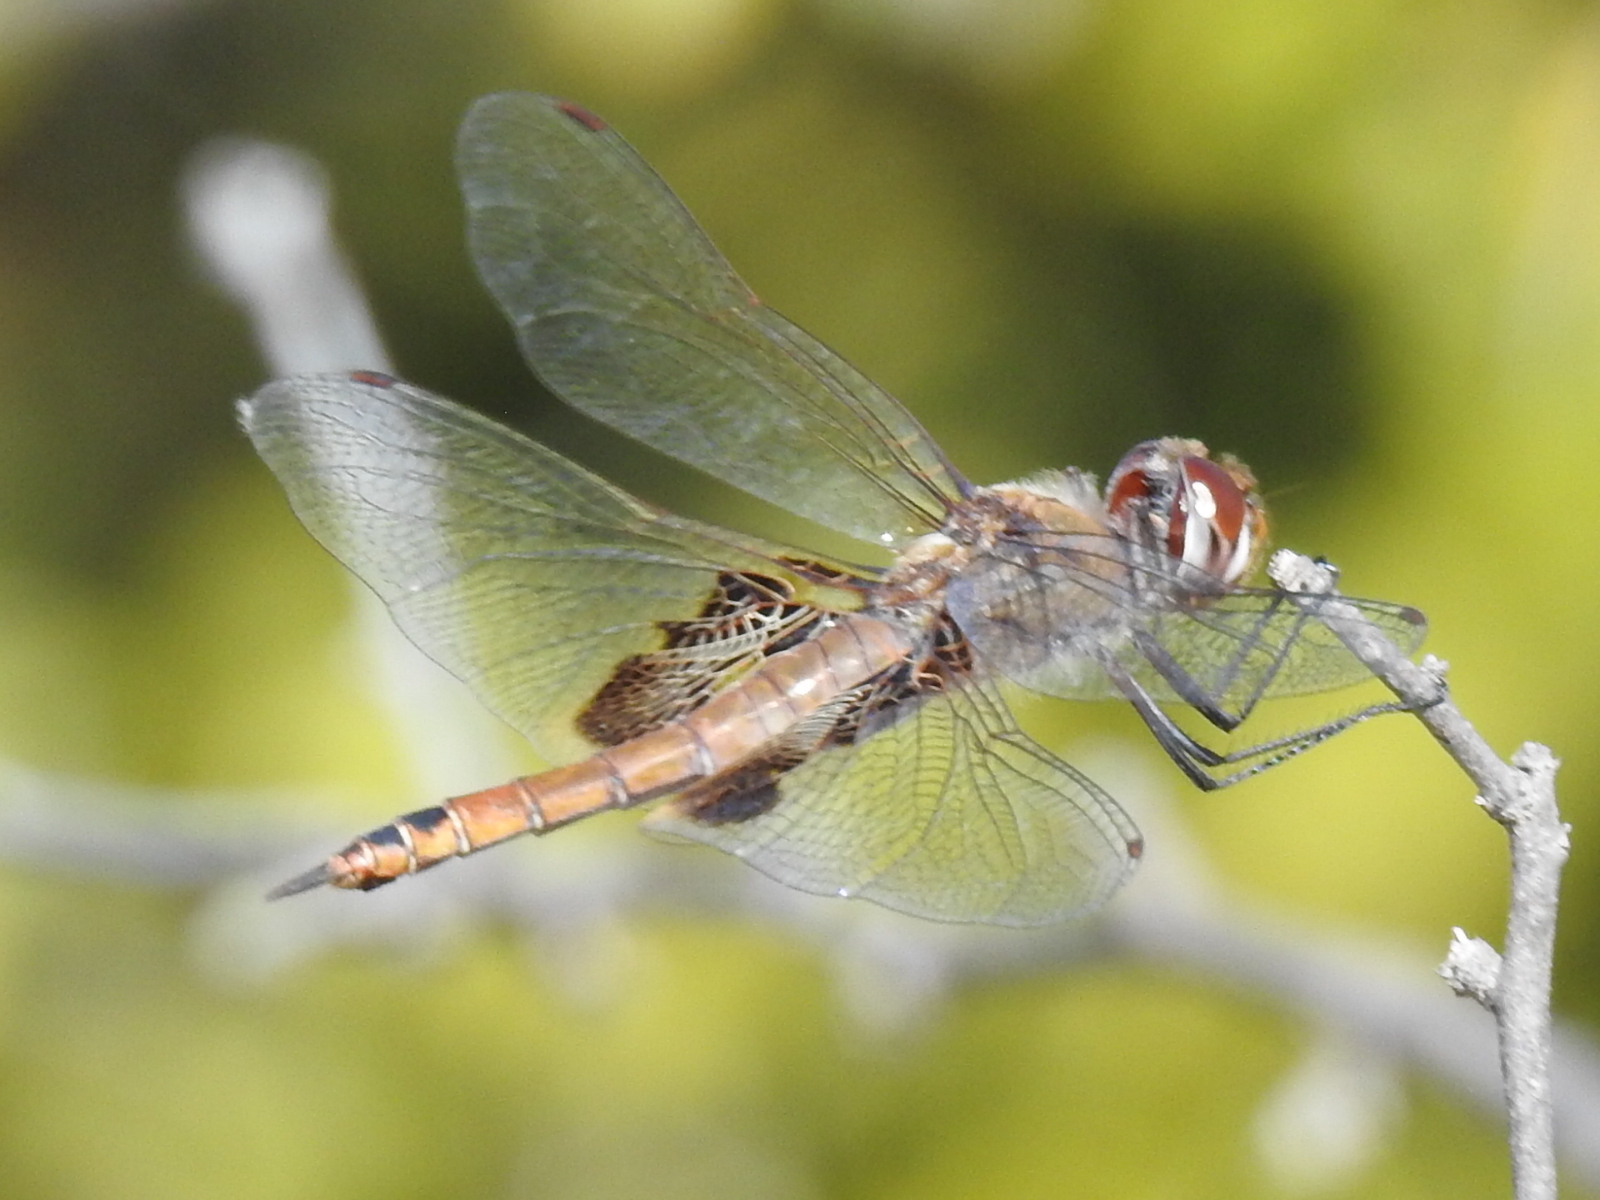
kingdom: Animalia
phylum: Arthropoda
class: Insecta
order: Odonata
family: Libellulidae
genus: Tramea
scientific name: Tramea onusta
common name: Red saddlebags
